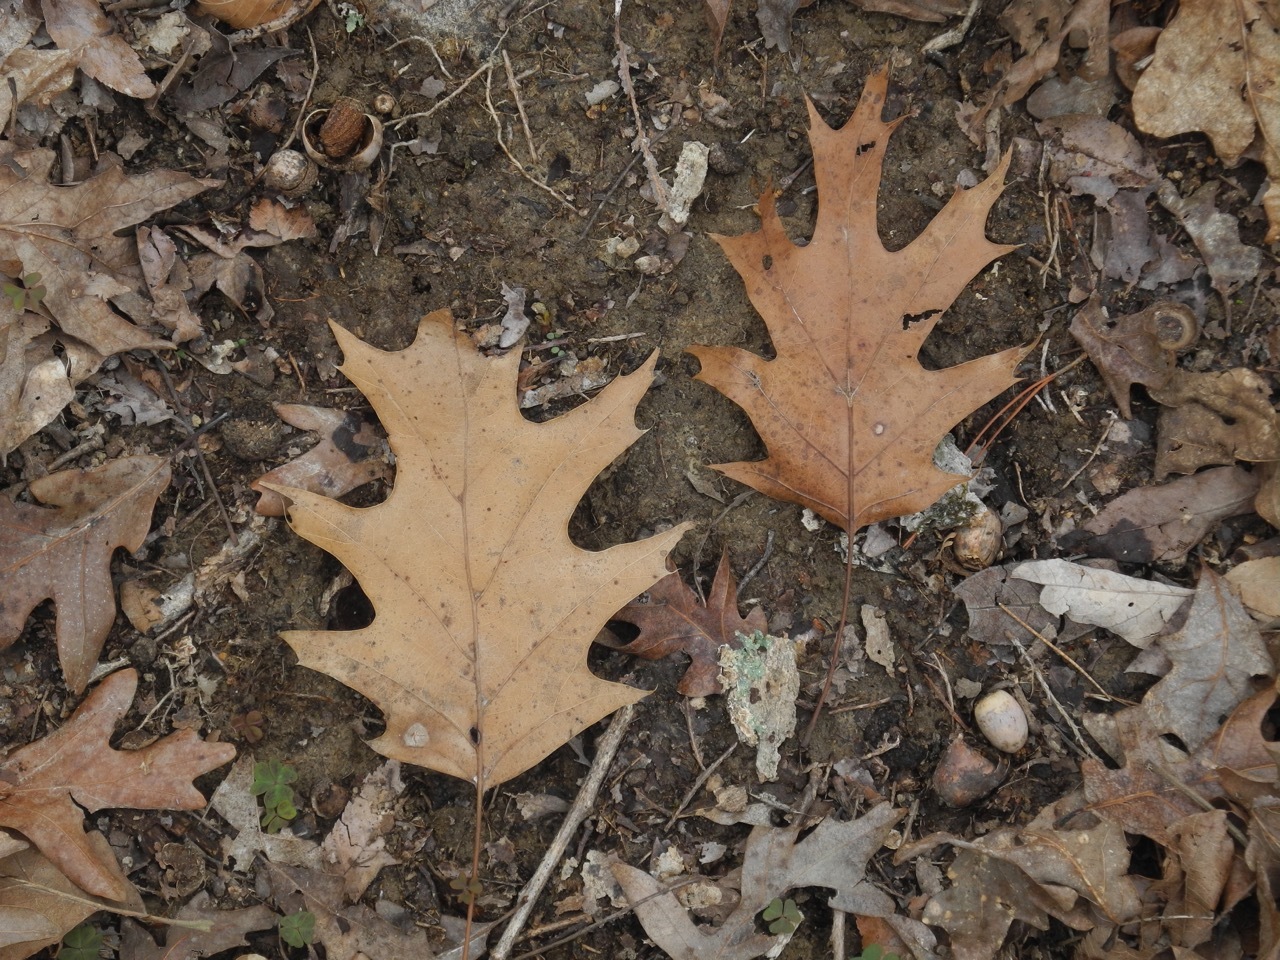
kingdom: Plantae
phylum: Tracheophyta
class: Magnoliopsida
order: Fagales
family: Fagaceae
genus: Quercus
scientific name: Quercus rubra
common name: Red oak
